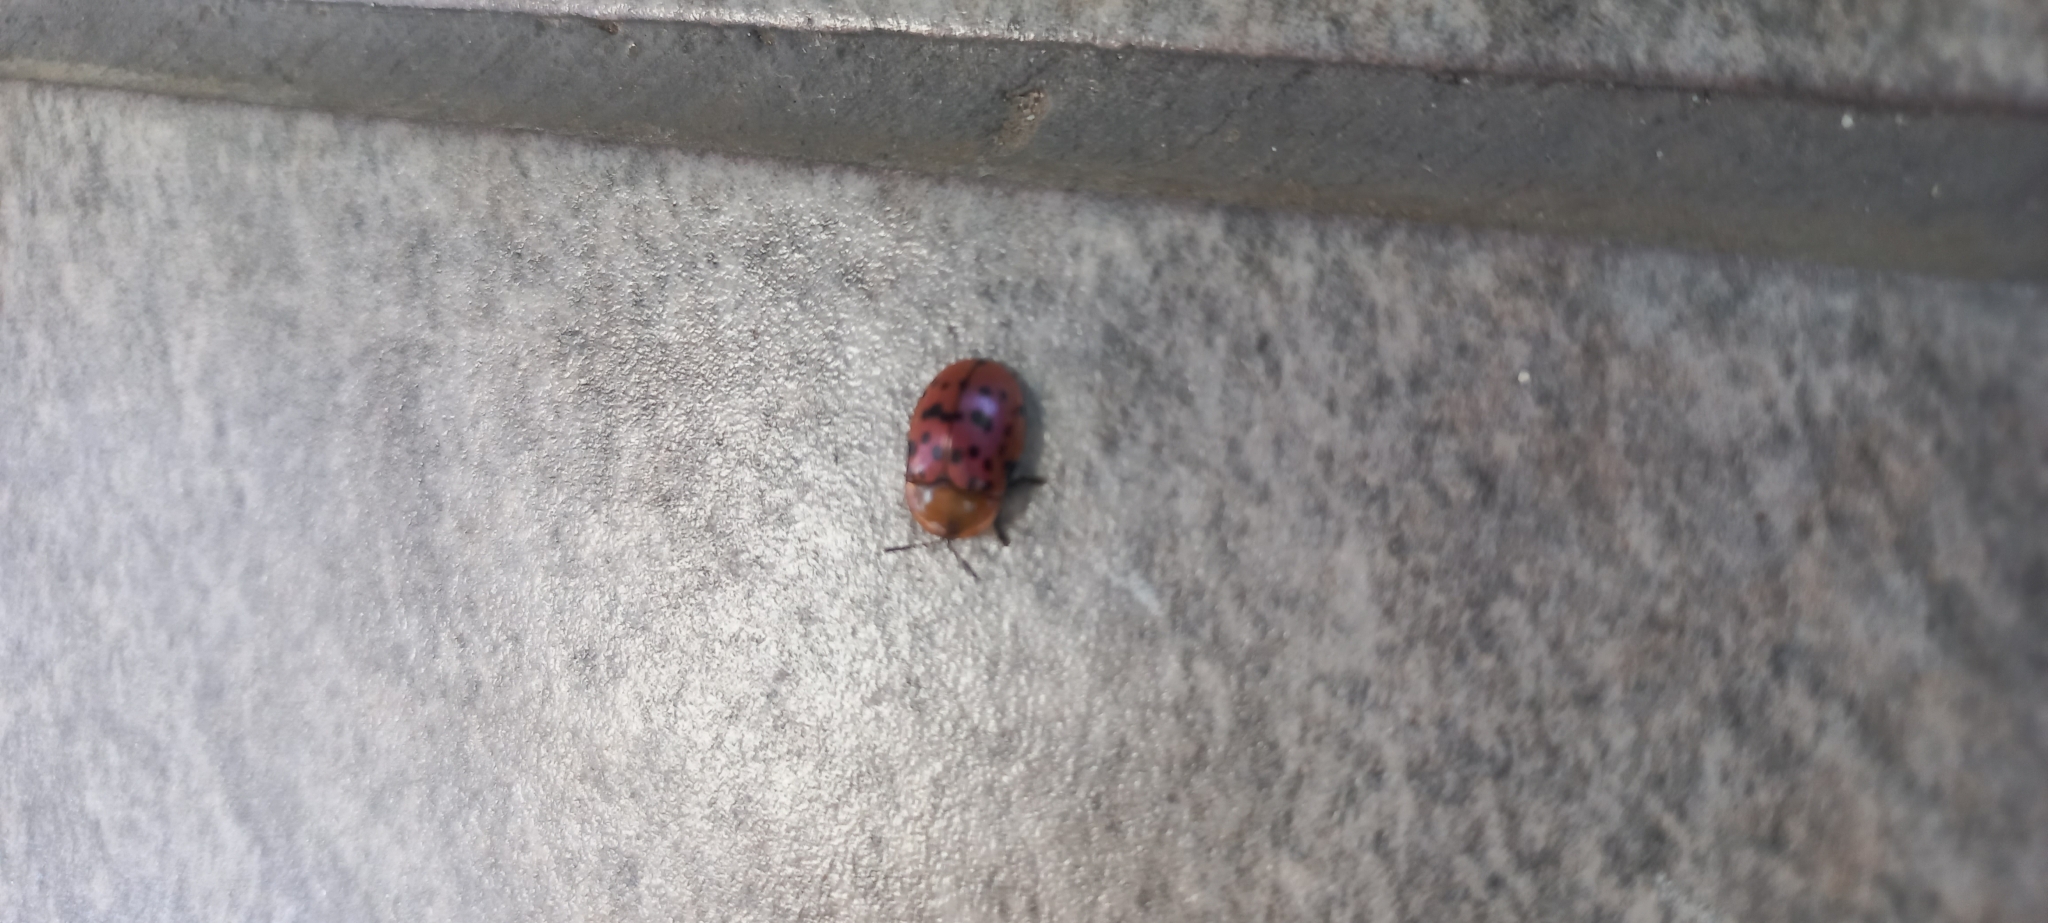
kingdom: Animalia
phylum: Arthropoda
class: Insecta
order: Coleoptera
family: Chrysomelidae
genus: Conchyloctenia
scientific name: Conchyloctenia punctata
